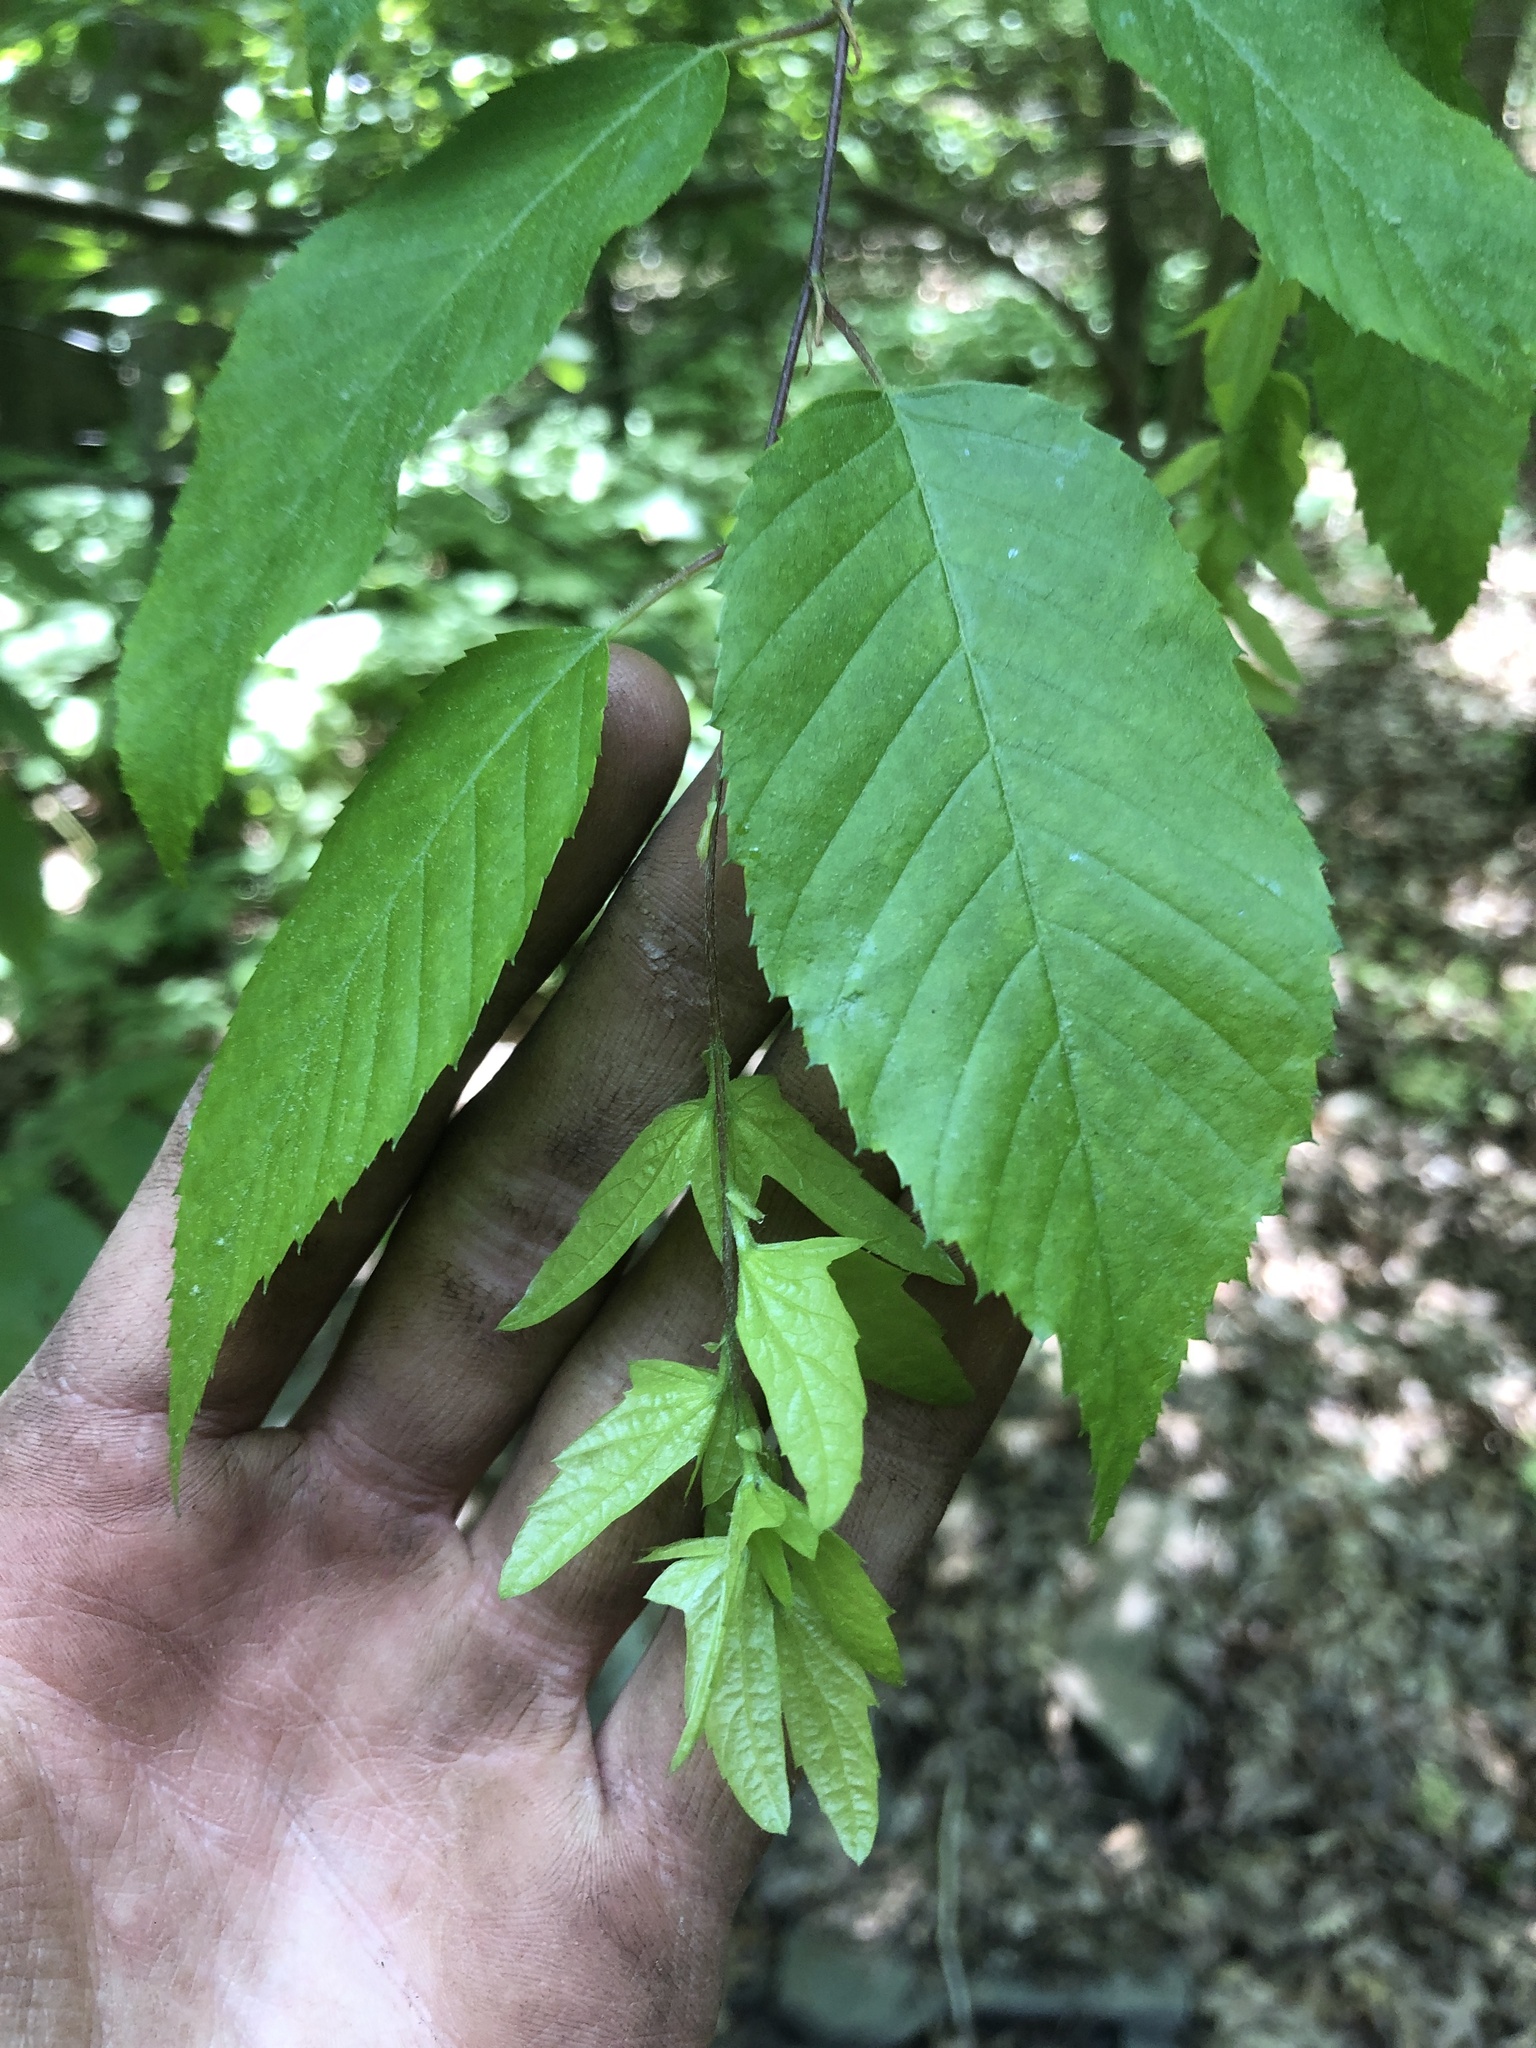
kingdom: Plantae
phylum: Tracheophyta
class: Magnoliopsida
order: Fagales
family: Betulaceae
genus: Carpinus
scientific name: Carpinus caroliniana
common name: American hornbeam
